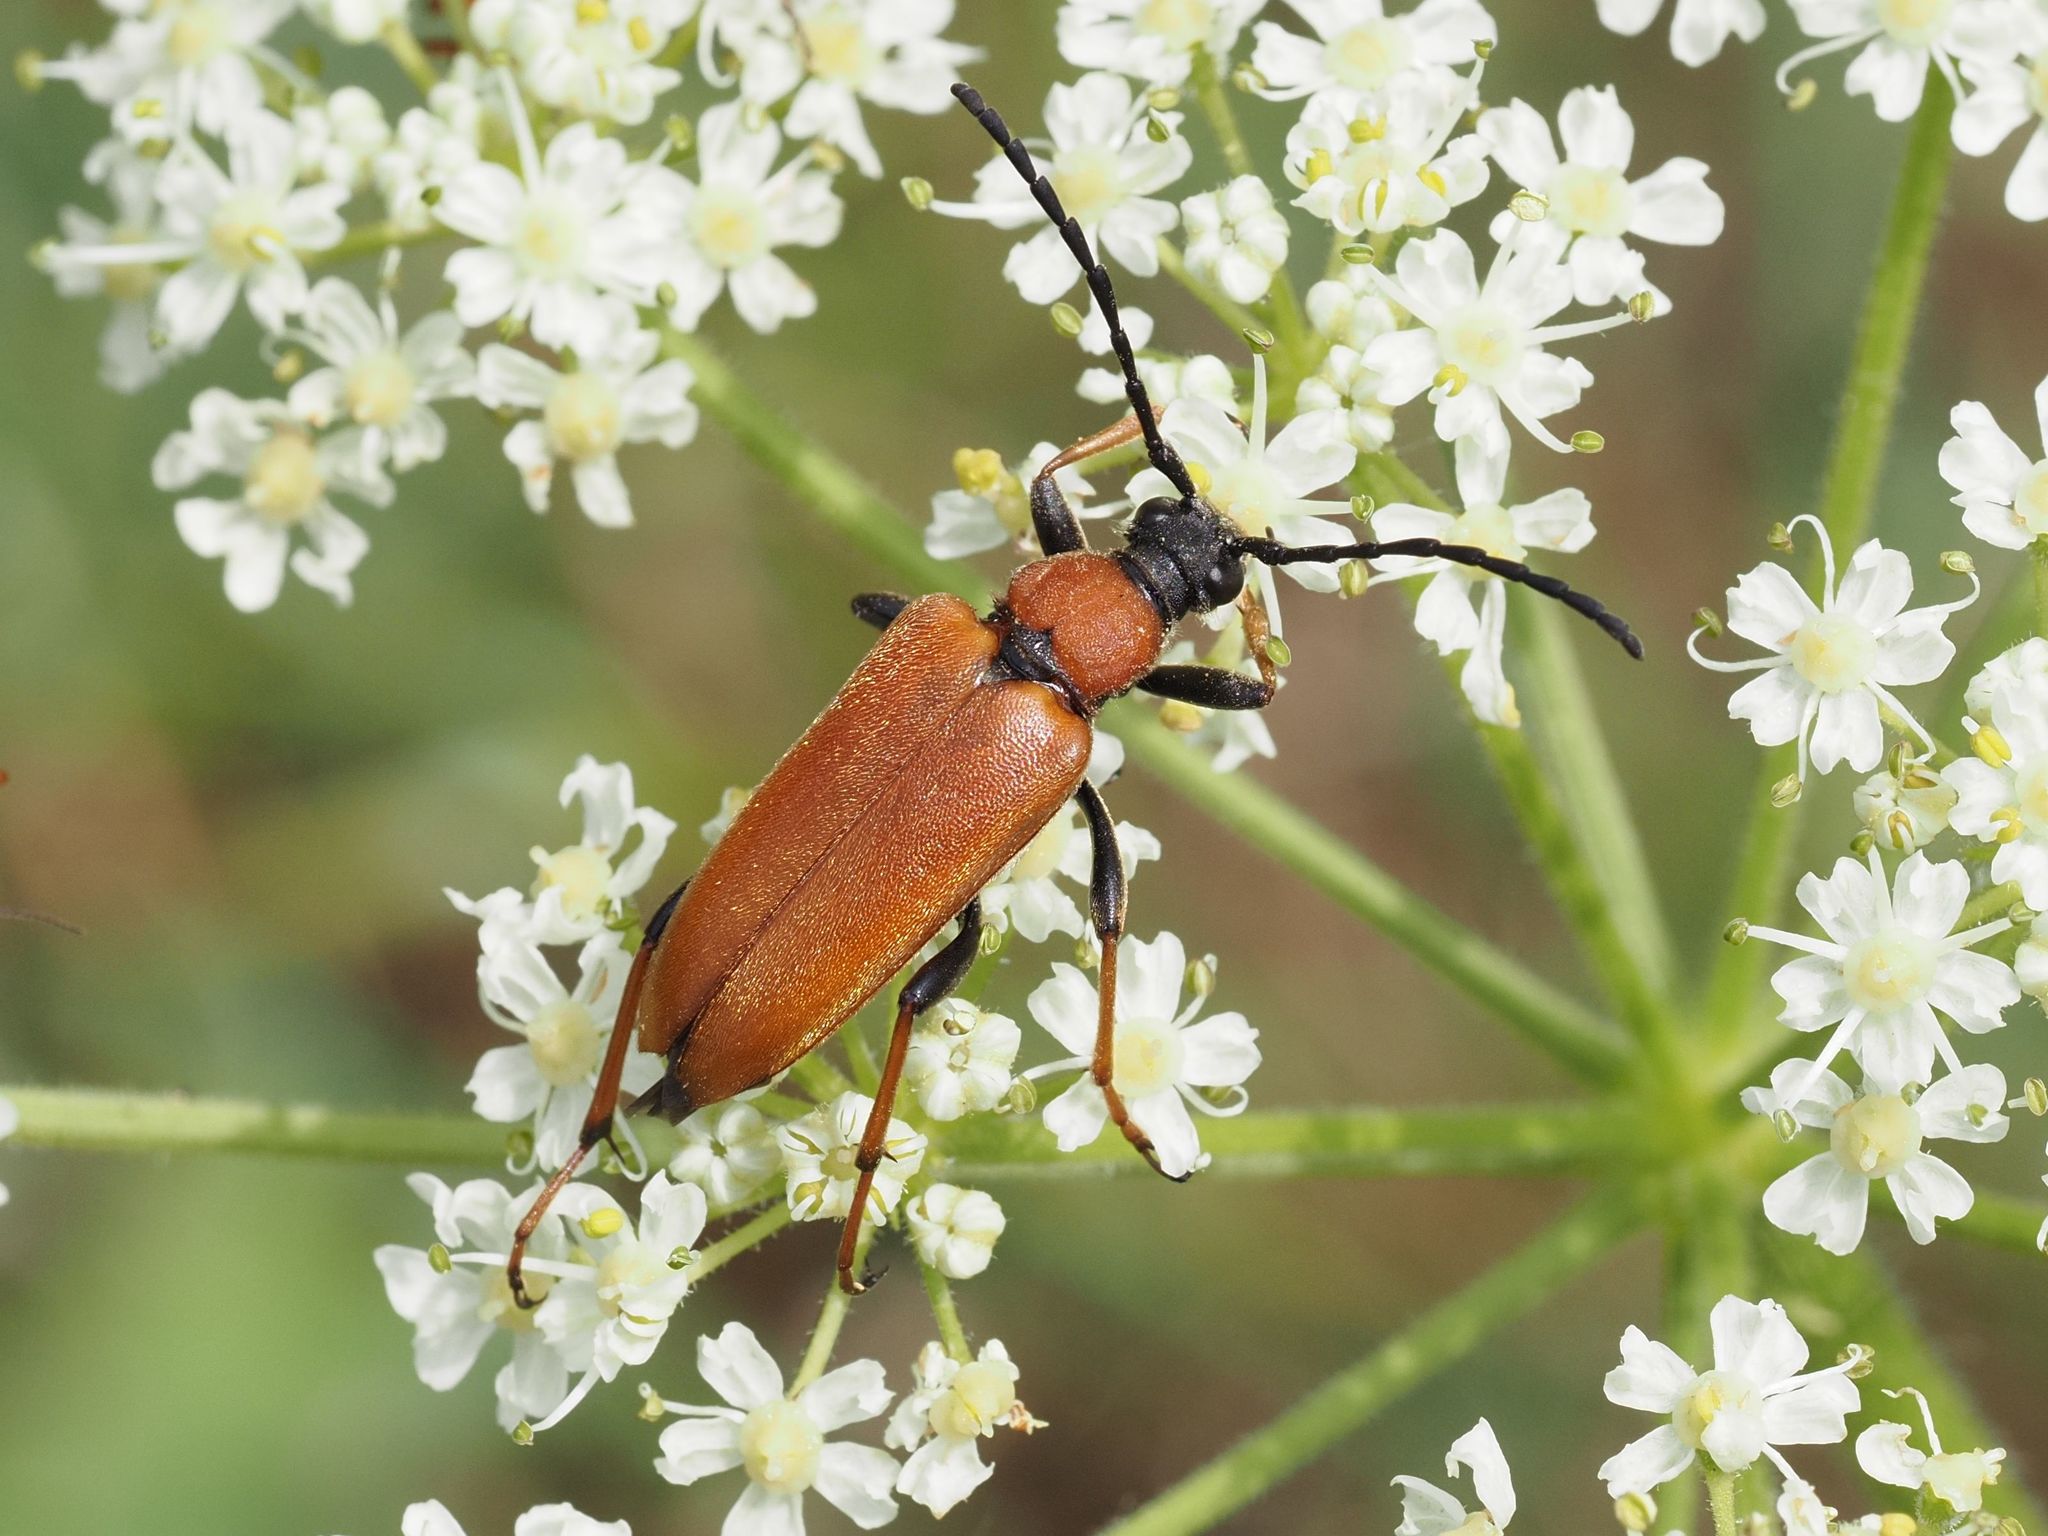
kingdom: Animalia
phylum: Arthropoda
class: Insecta
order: Coleoptera
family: Cerambycidae
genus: Stictoleptura
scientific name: Stictoleptura rubra
